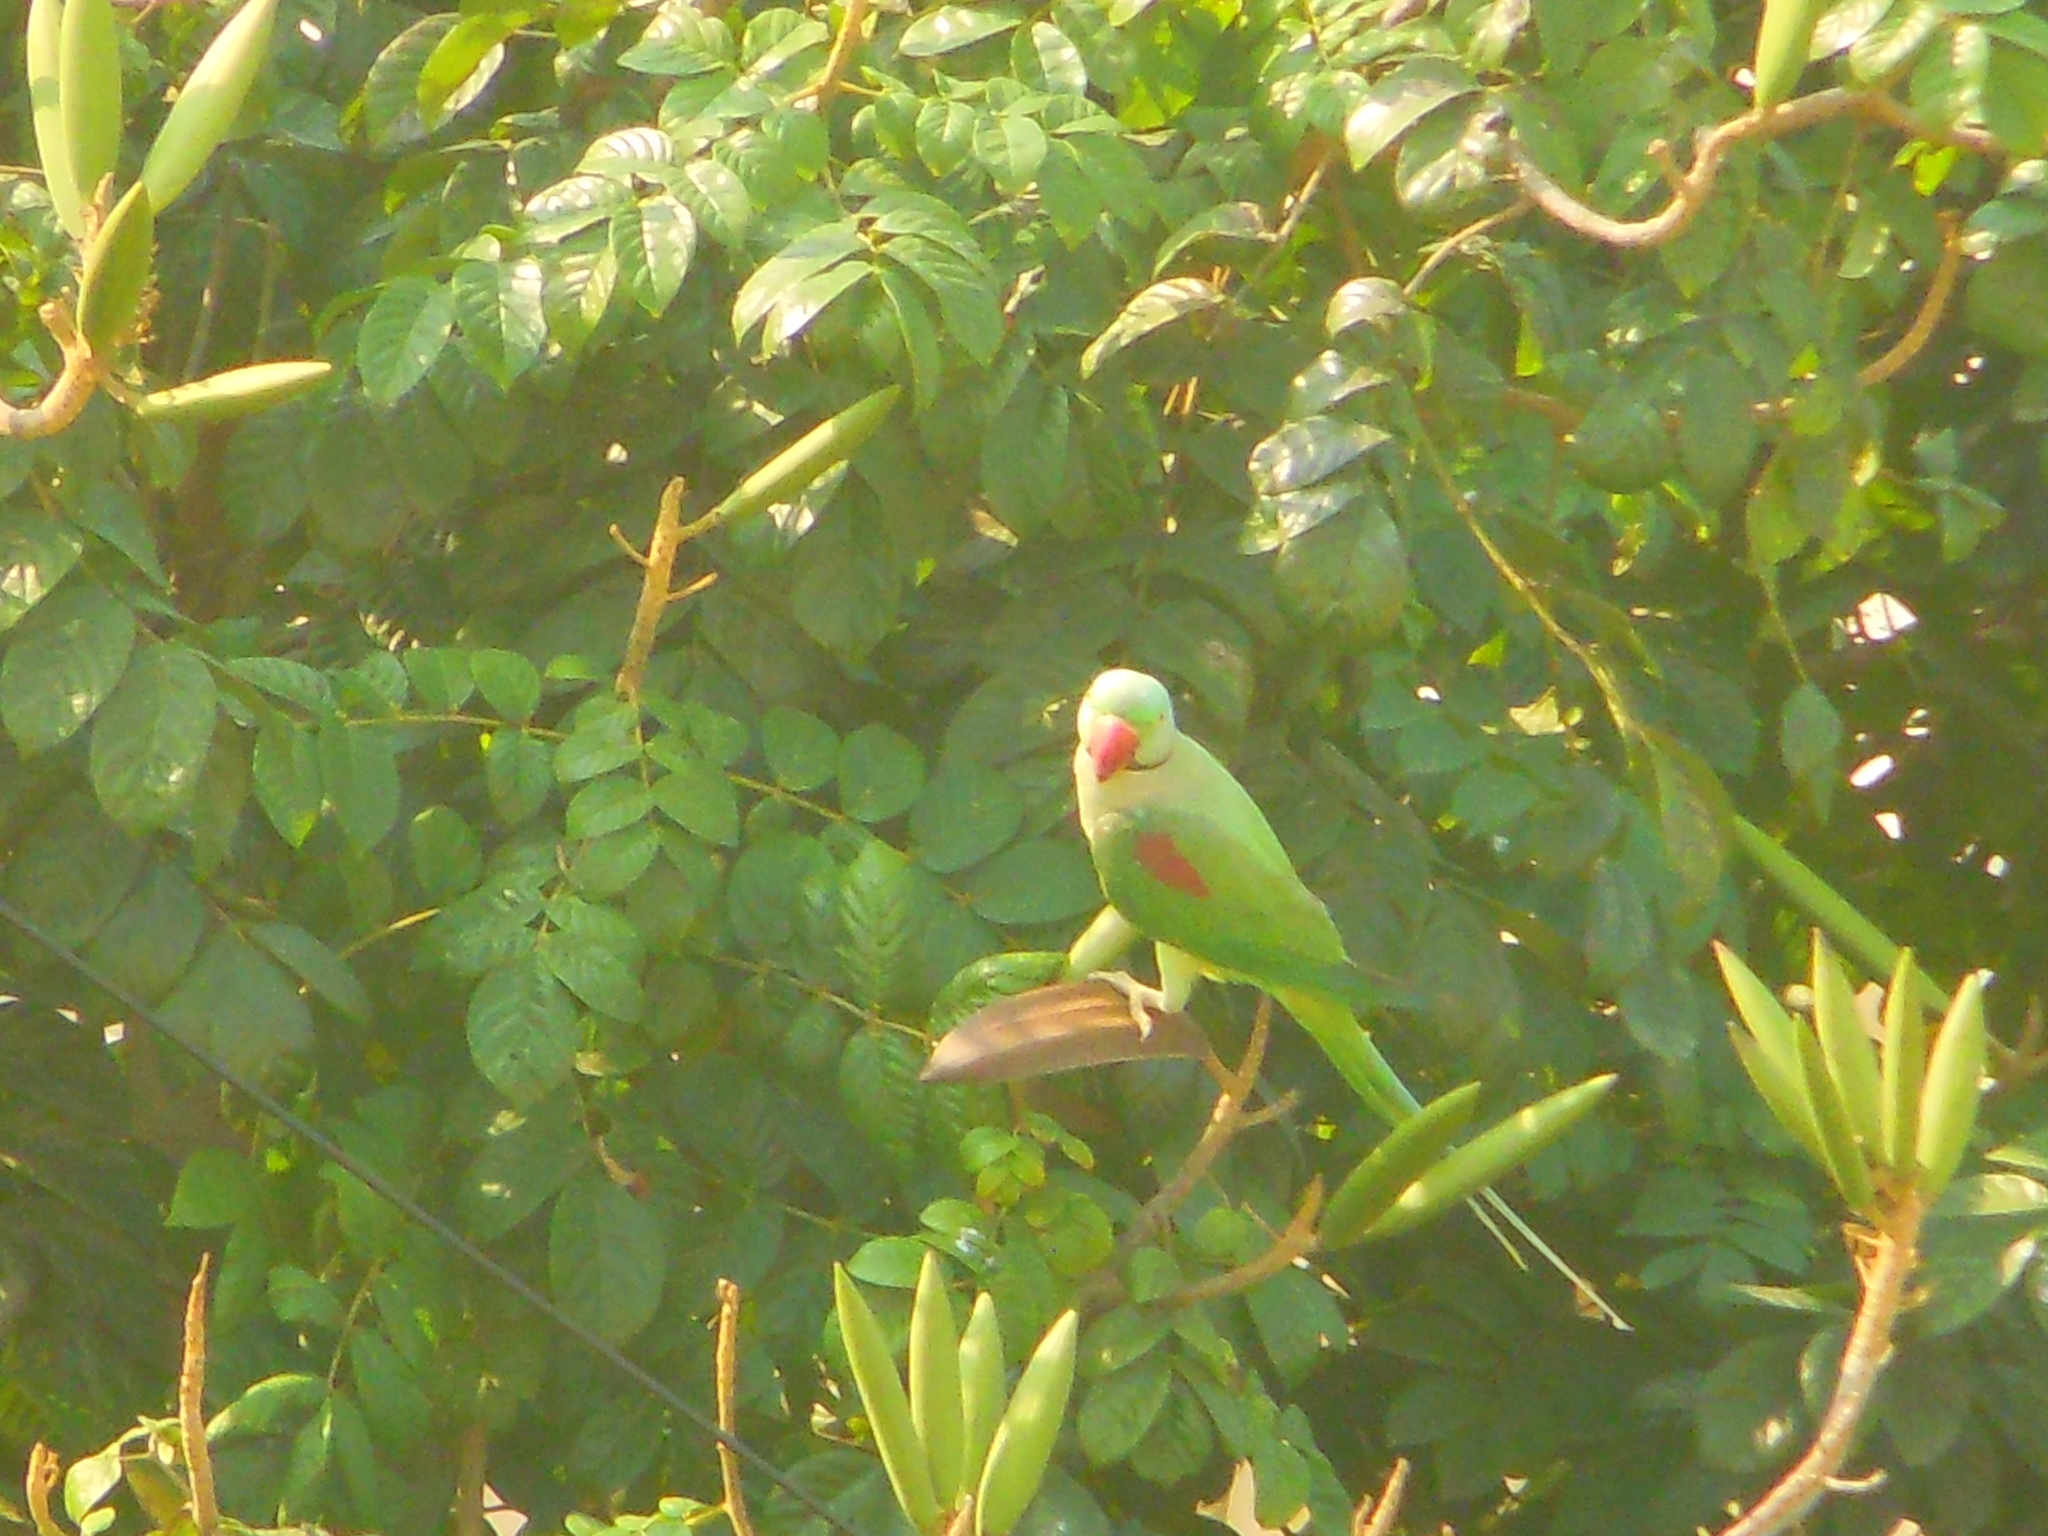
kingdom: Animalia
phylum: Chordata
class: Aves
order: Psittaciformes
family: Psittacidae
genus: Psittacula
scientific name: Psittacula eupatria
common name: Alexandrine parakeet
